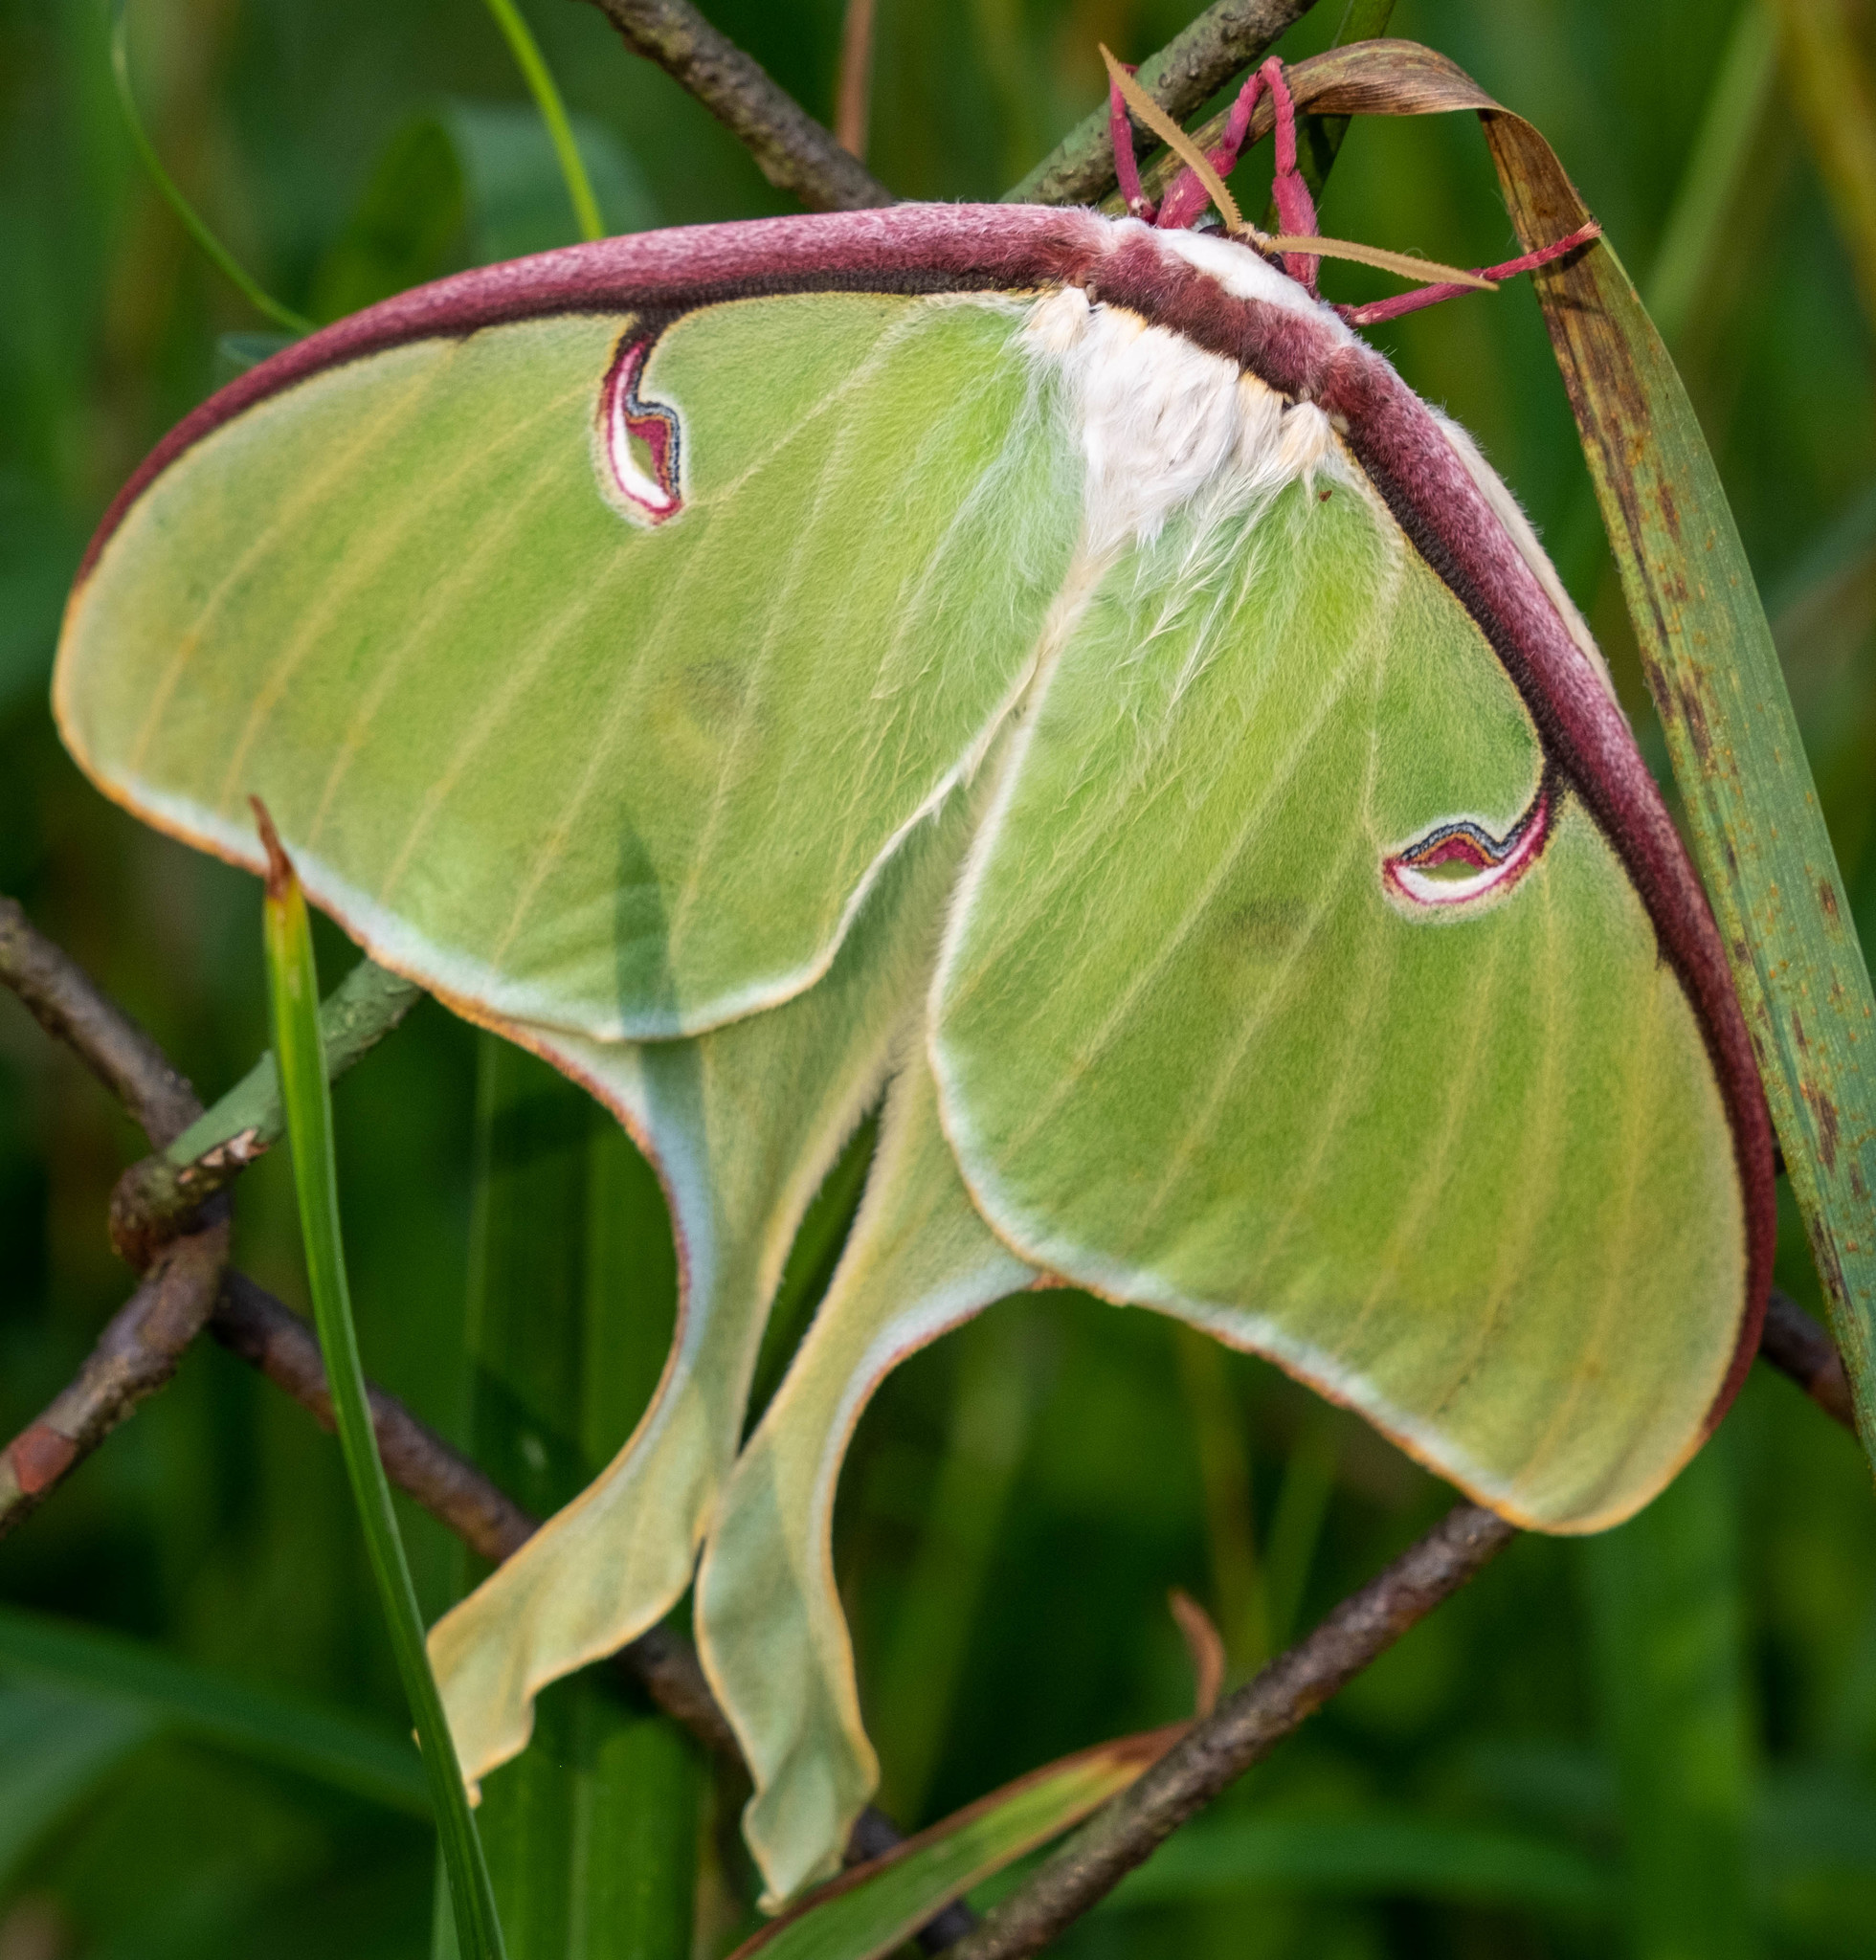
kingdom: Animalia
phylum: Arthropoda
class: Insecta
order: Lepidoptera
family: Saturniidae
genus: Actias
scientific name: Actias luna
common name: Luna moth
